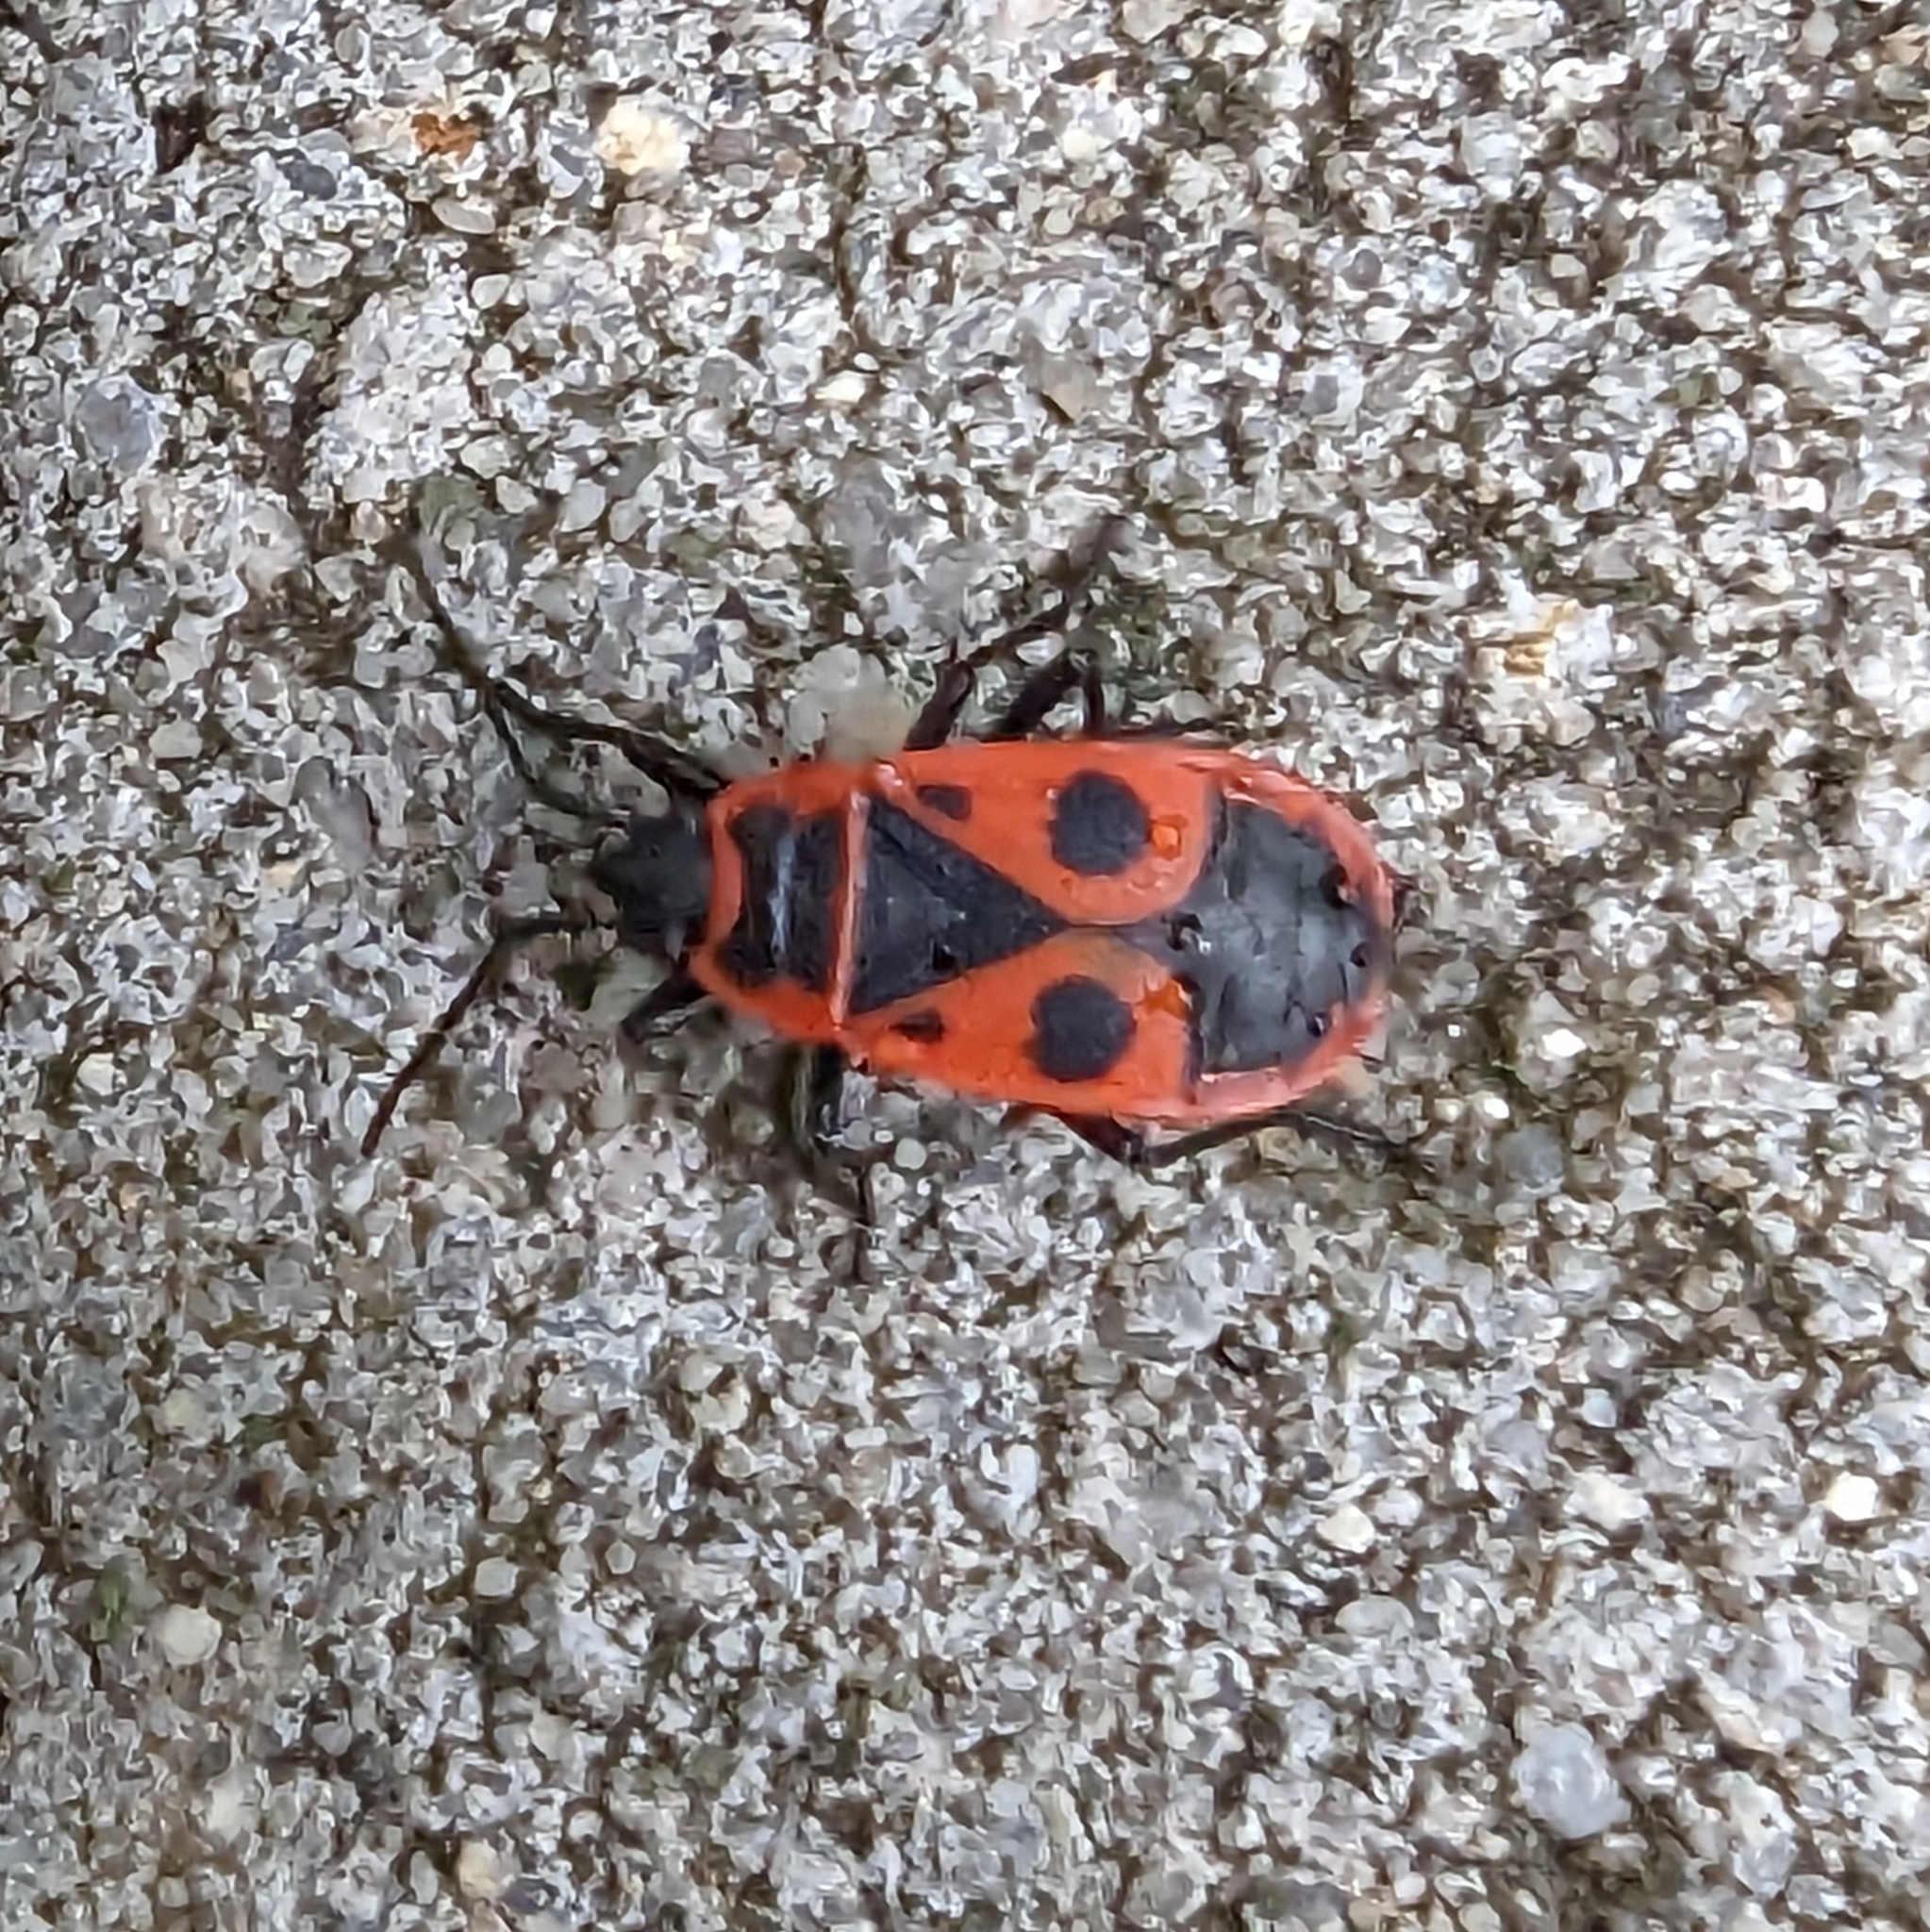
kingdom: Animalia
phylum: Arthropoda
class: Insecta
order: Hemiptera
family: Pyrrhocoridae
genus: Pyrrhocoris
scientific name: Pyrrhocoris apterus
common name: Firebug
